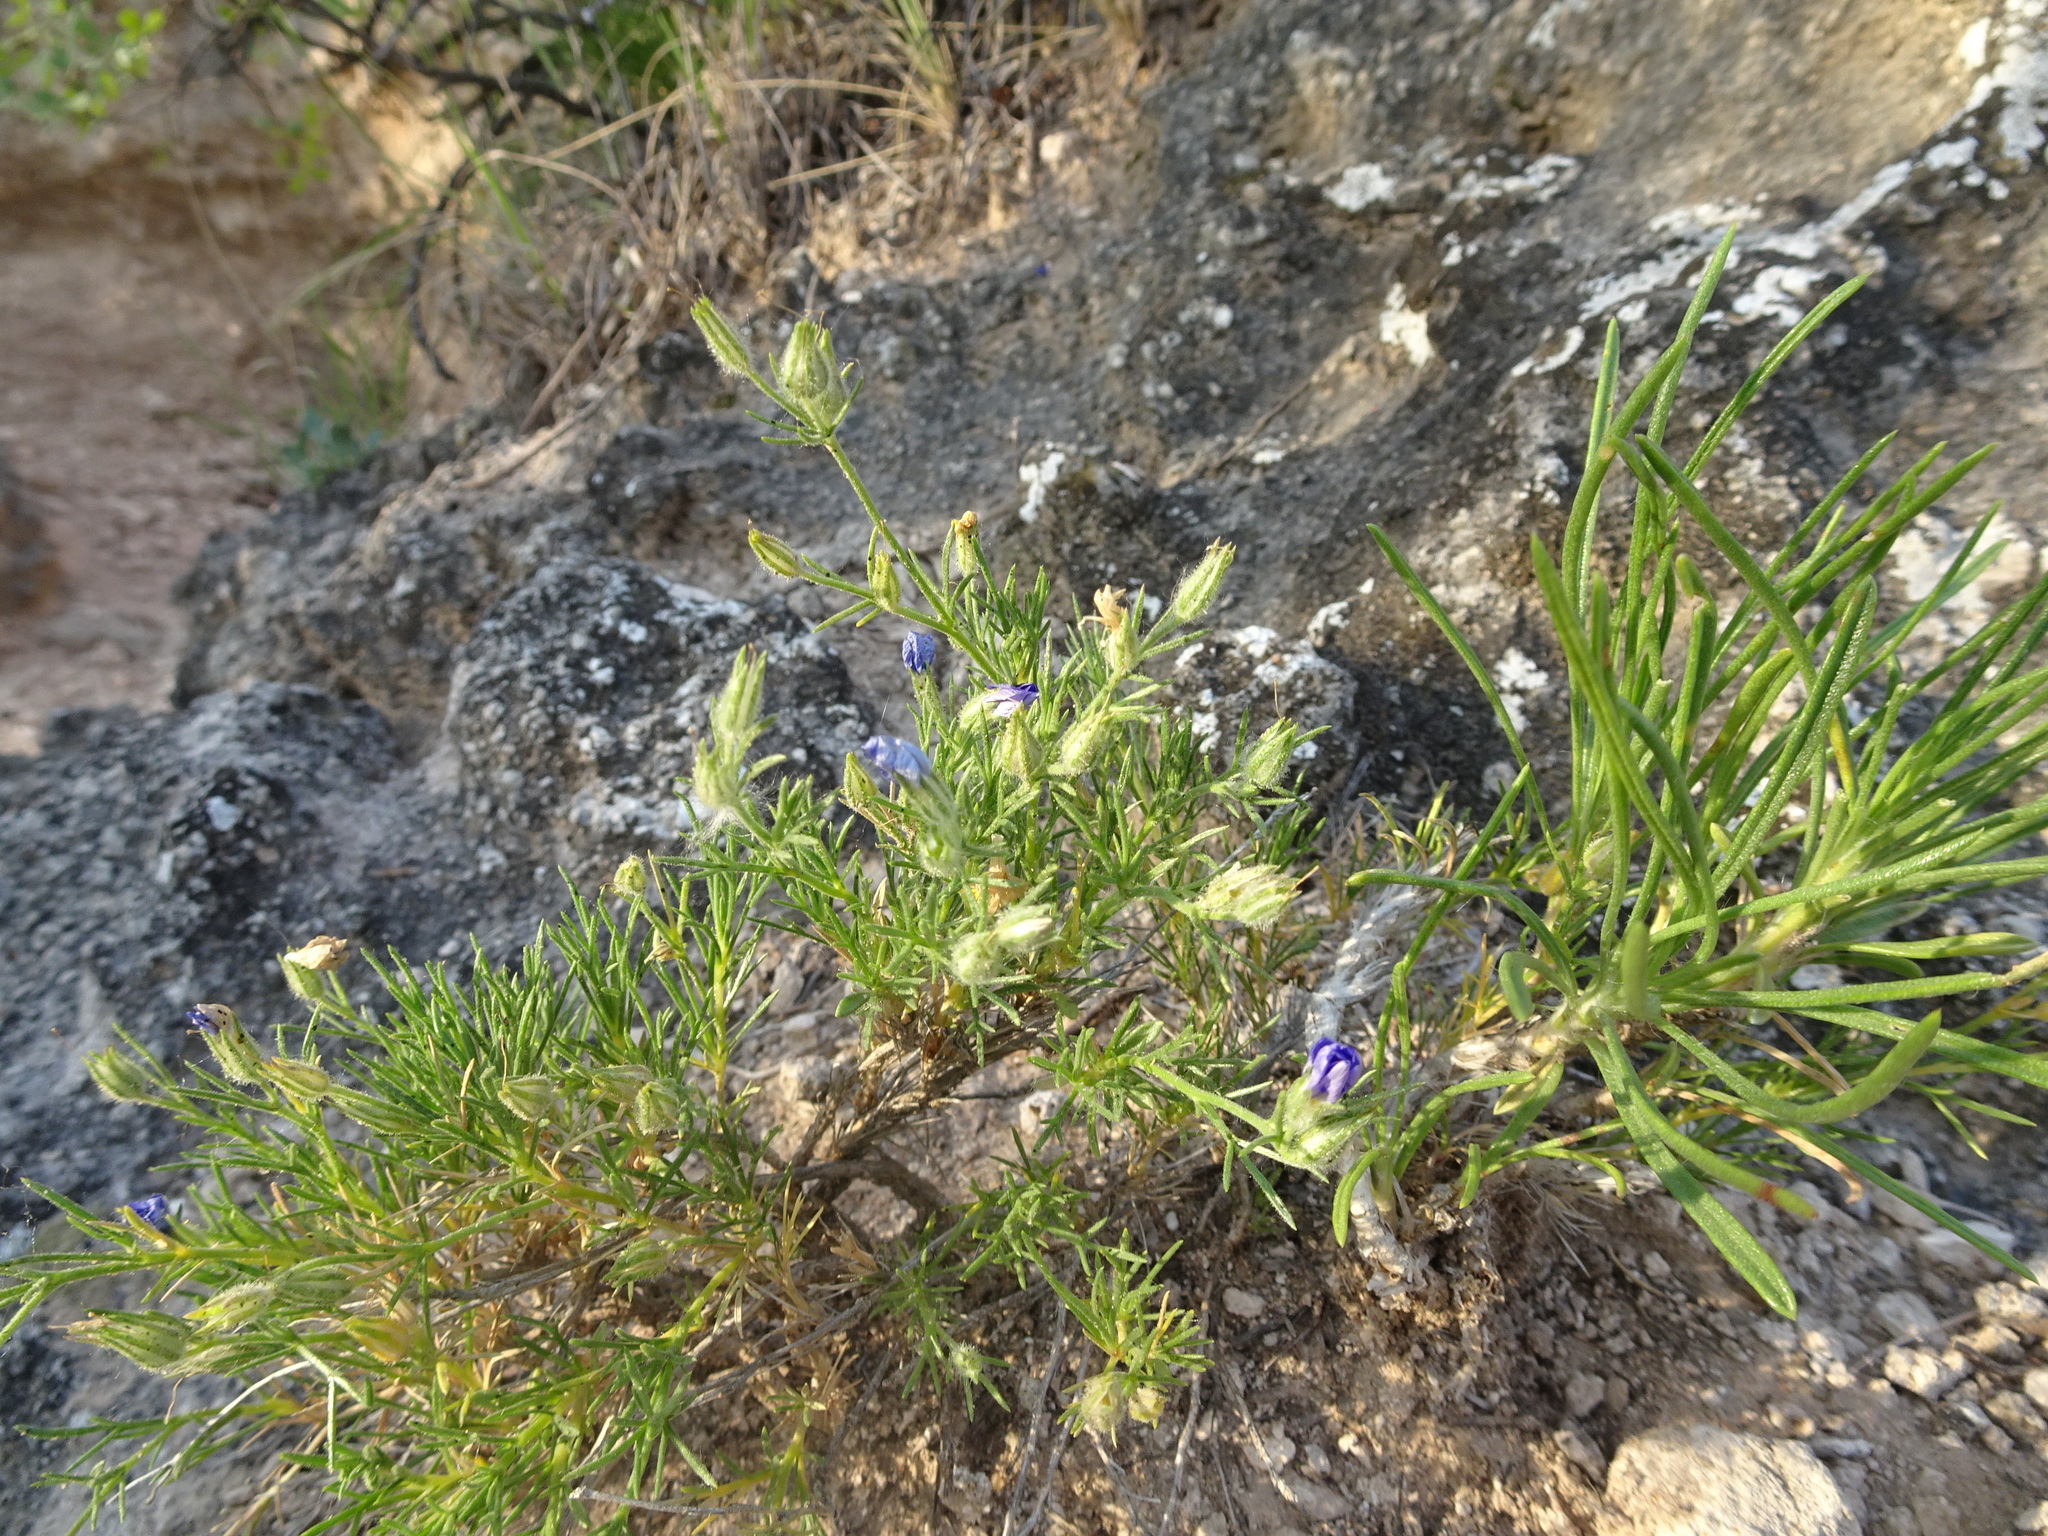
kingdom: Plantae
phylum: Tracheophyta
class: Magnoliopsida
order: Ericales
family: Polemoniaceae
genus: Giliastrum
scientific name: Giliastrum acerosum
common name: Bluebowls
